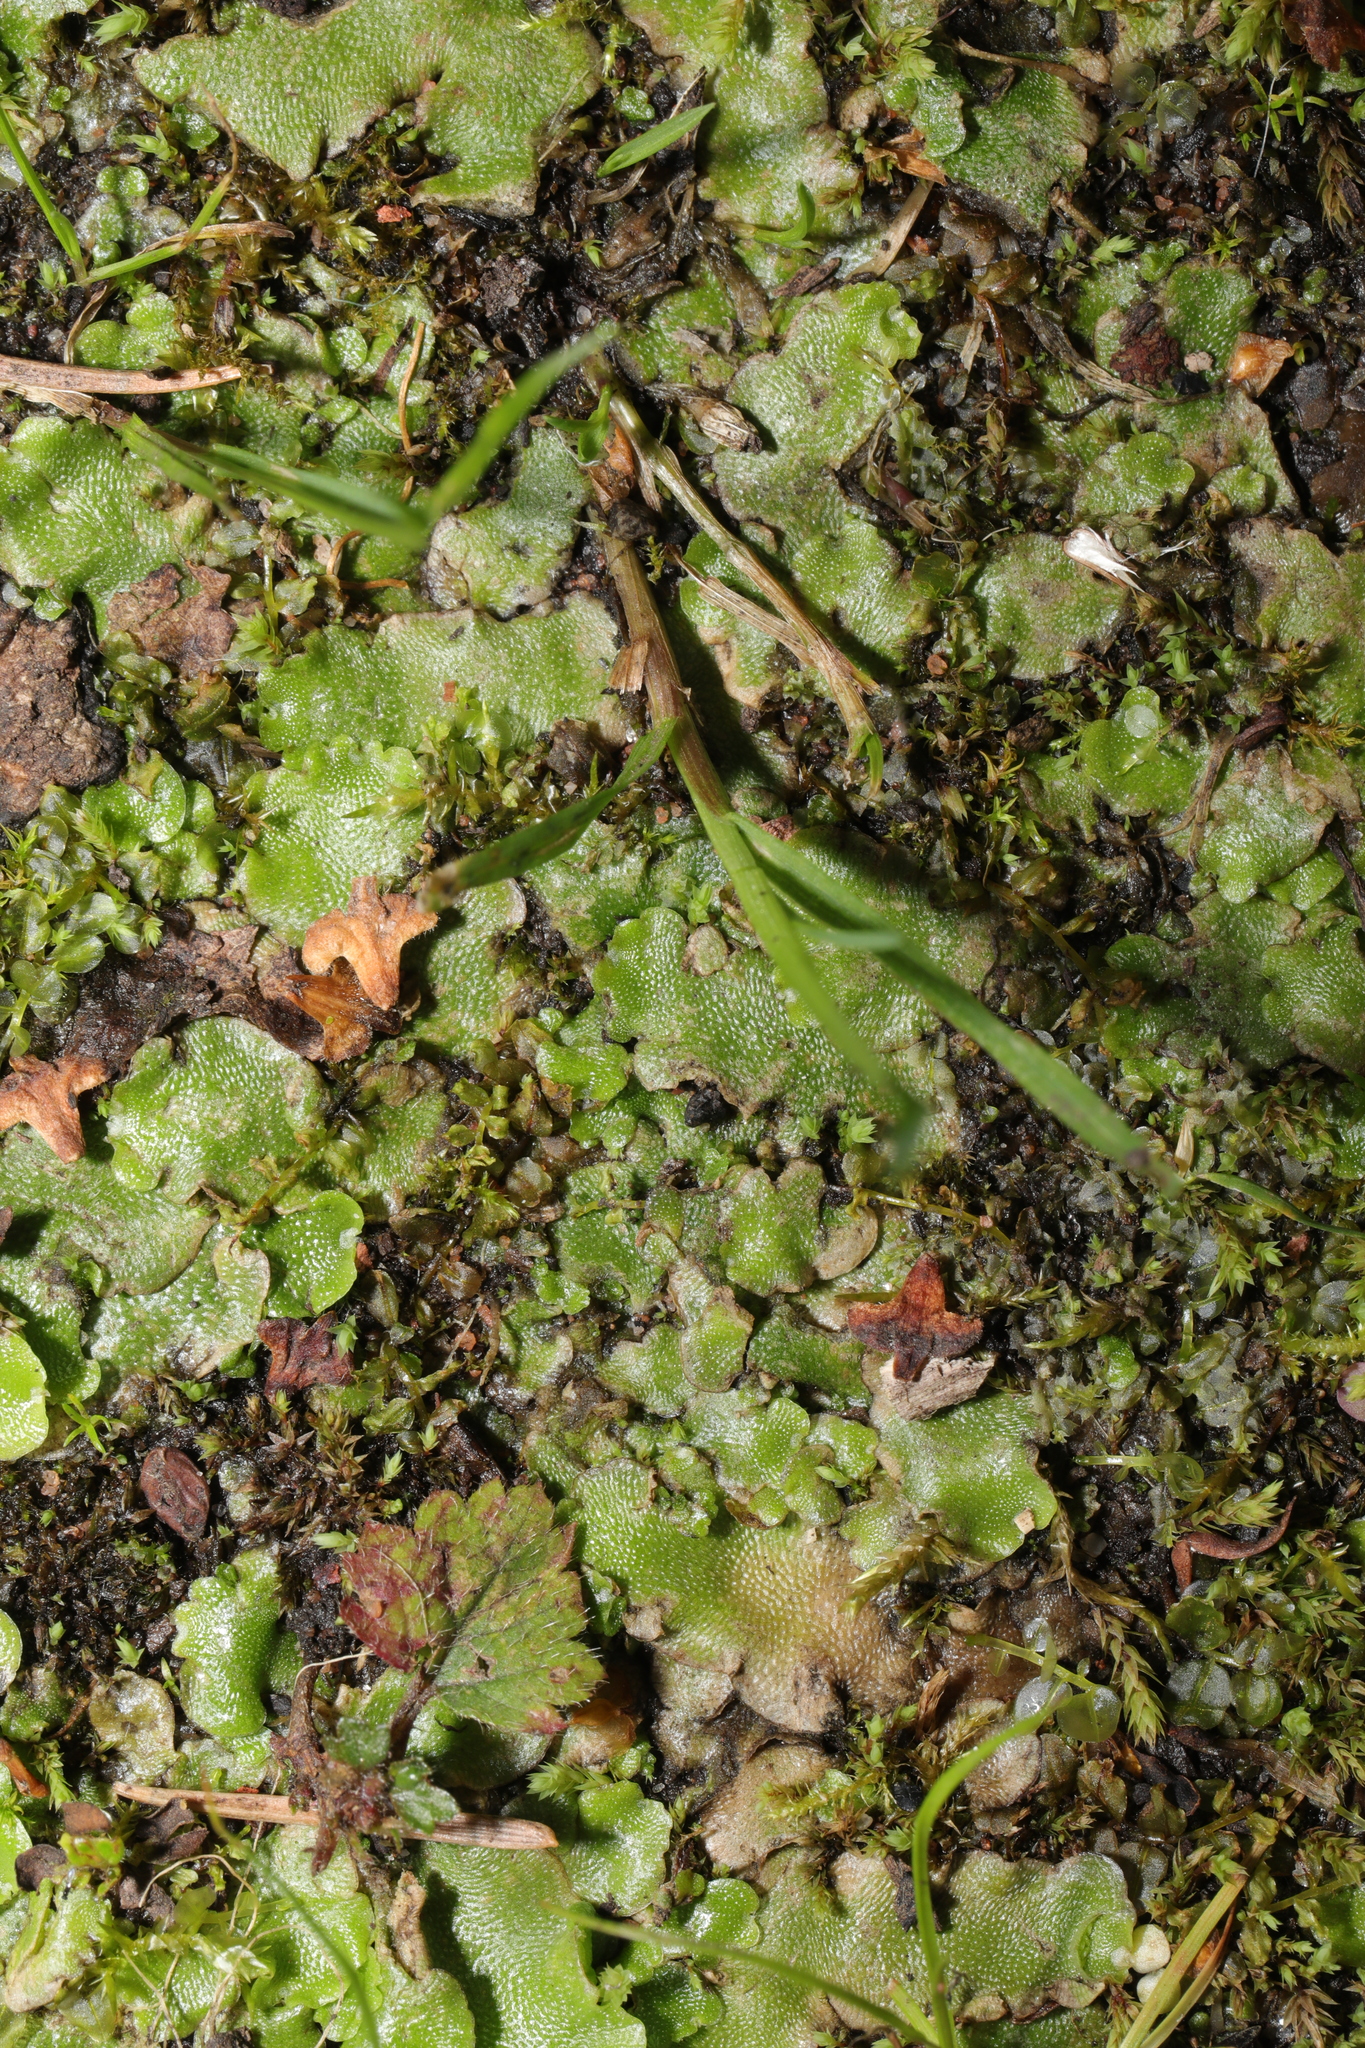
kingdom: Plantae
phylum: Marchantiophyta
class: Marchantiopsida
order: Lunulariales
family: Lunulariaceae
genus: Lunularia
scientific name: Lunularia cruciata
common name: Crescent-cup liverwort
